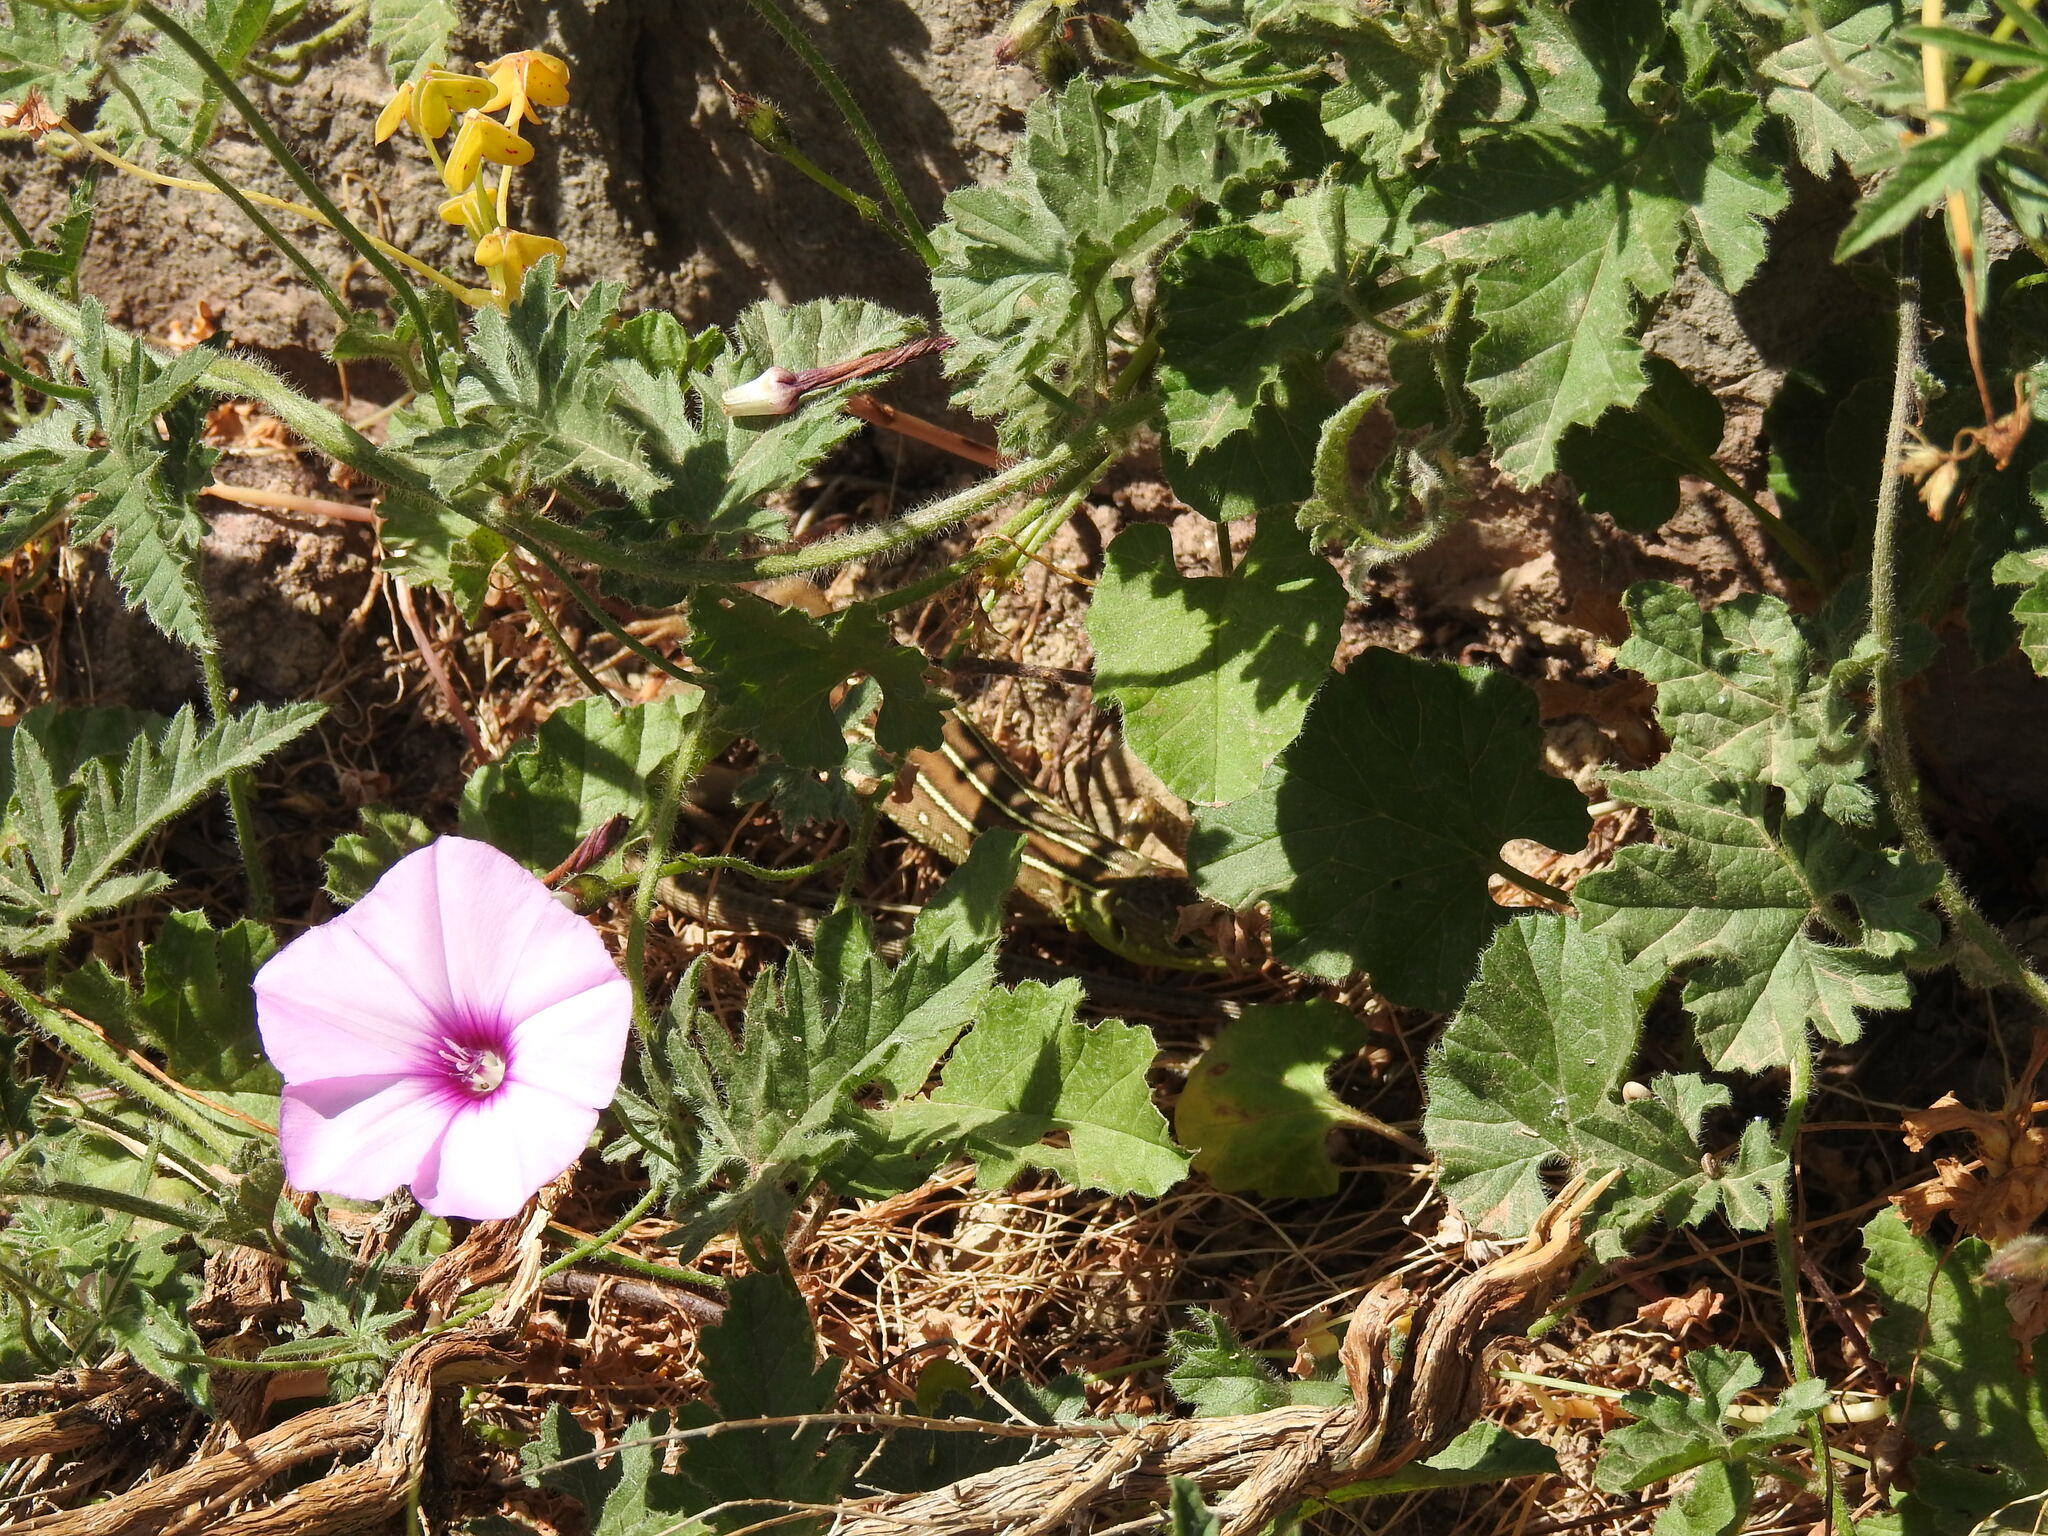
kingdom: Plantae
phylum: Tracheophyta
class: Magnoliopsida
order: Solanales
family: Convolvulaceae
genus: Convolvulus
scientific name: Convolvulus althaeoides
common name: Mallow bindweed
